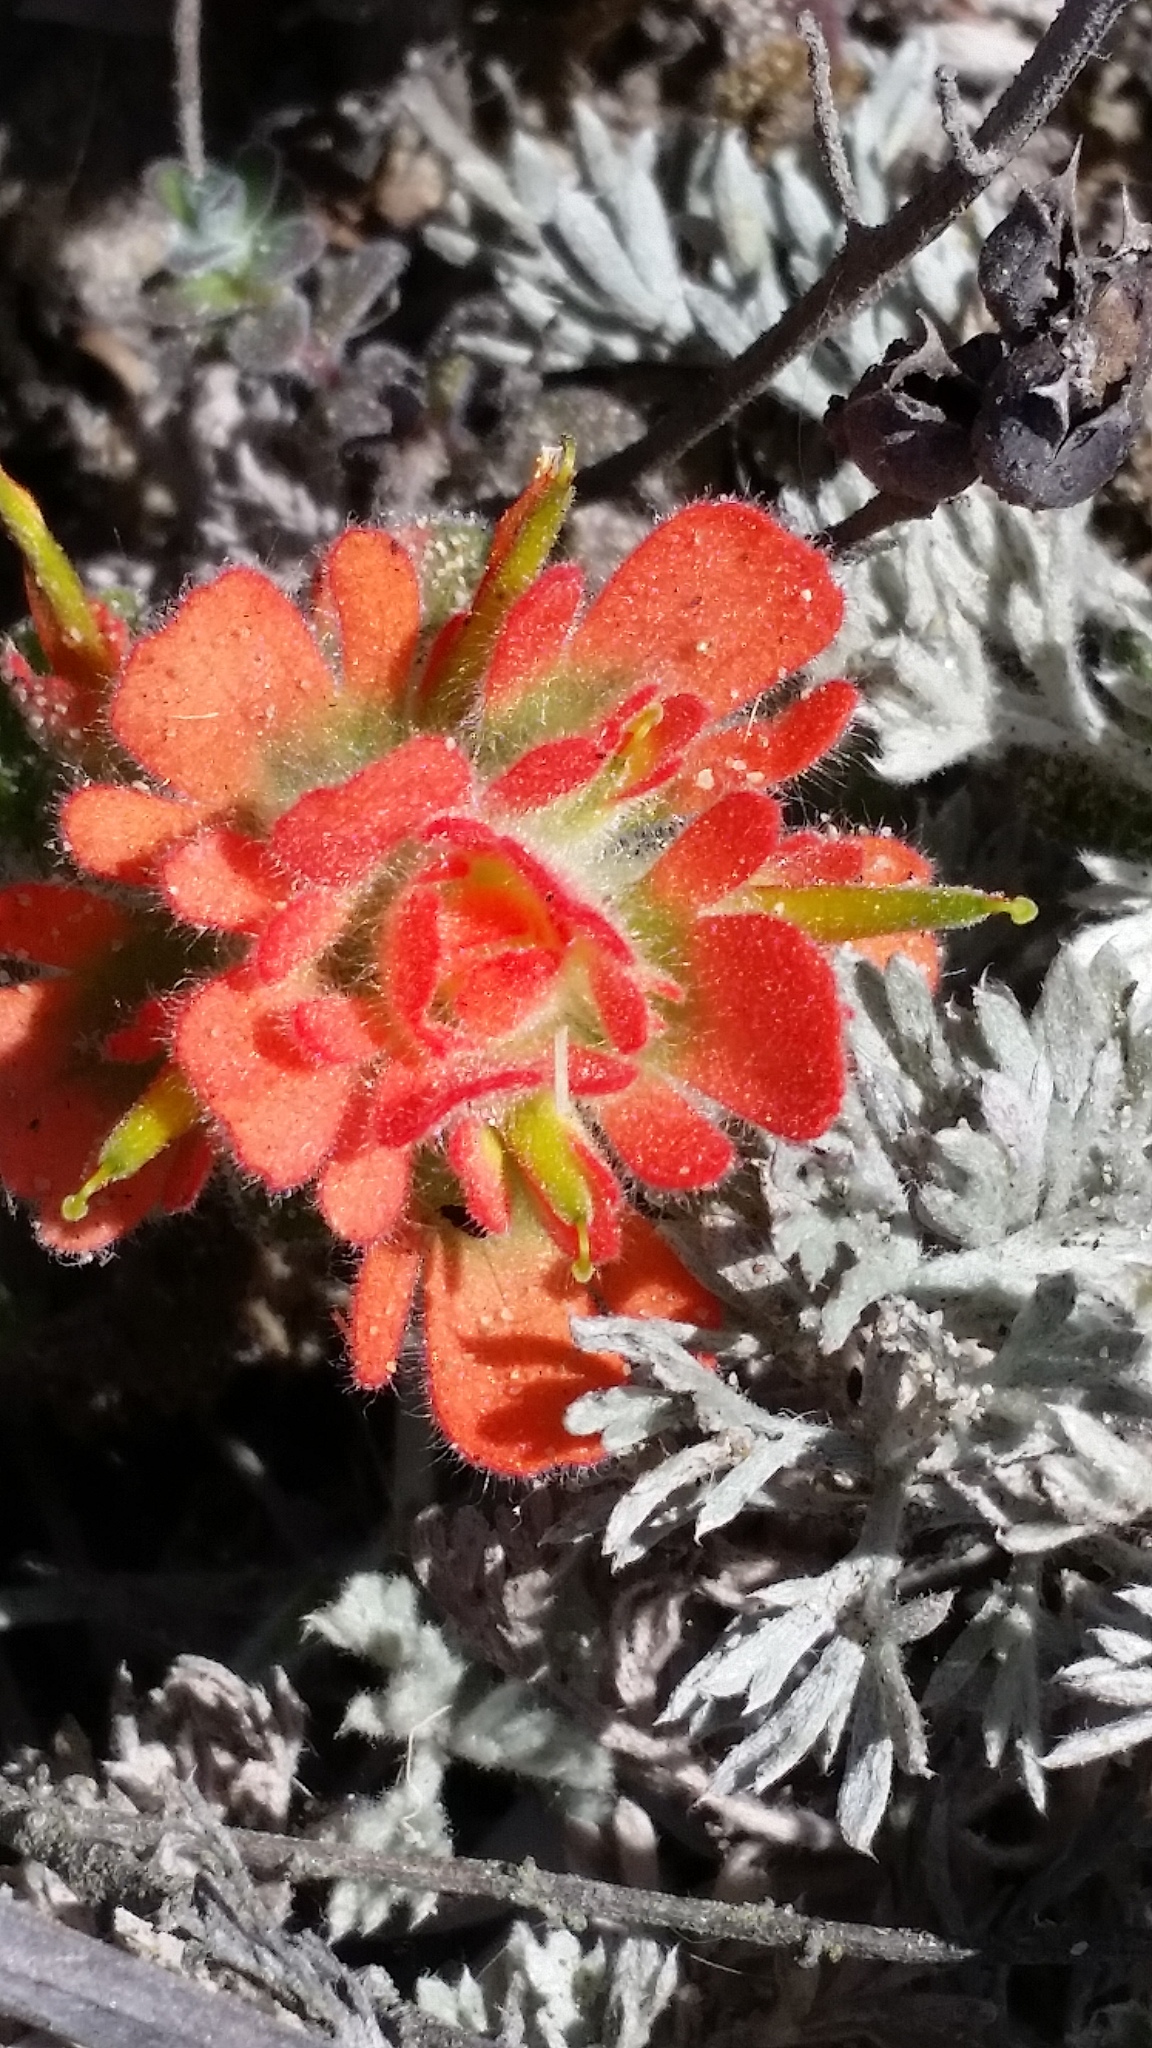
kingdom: Plantae
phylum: Tracheophyta
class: Magnoliopsida
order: Lamiales
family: Orobanchaceae
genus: Castilleja
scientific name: Castilleja latifolia
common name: Monterey indian paintbrush
